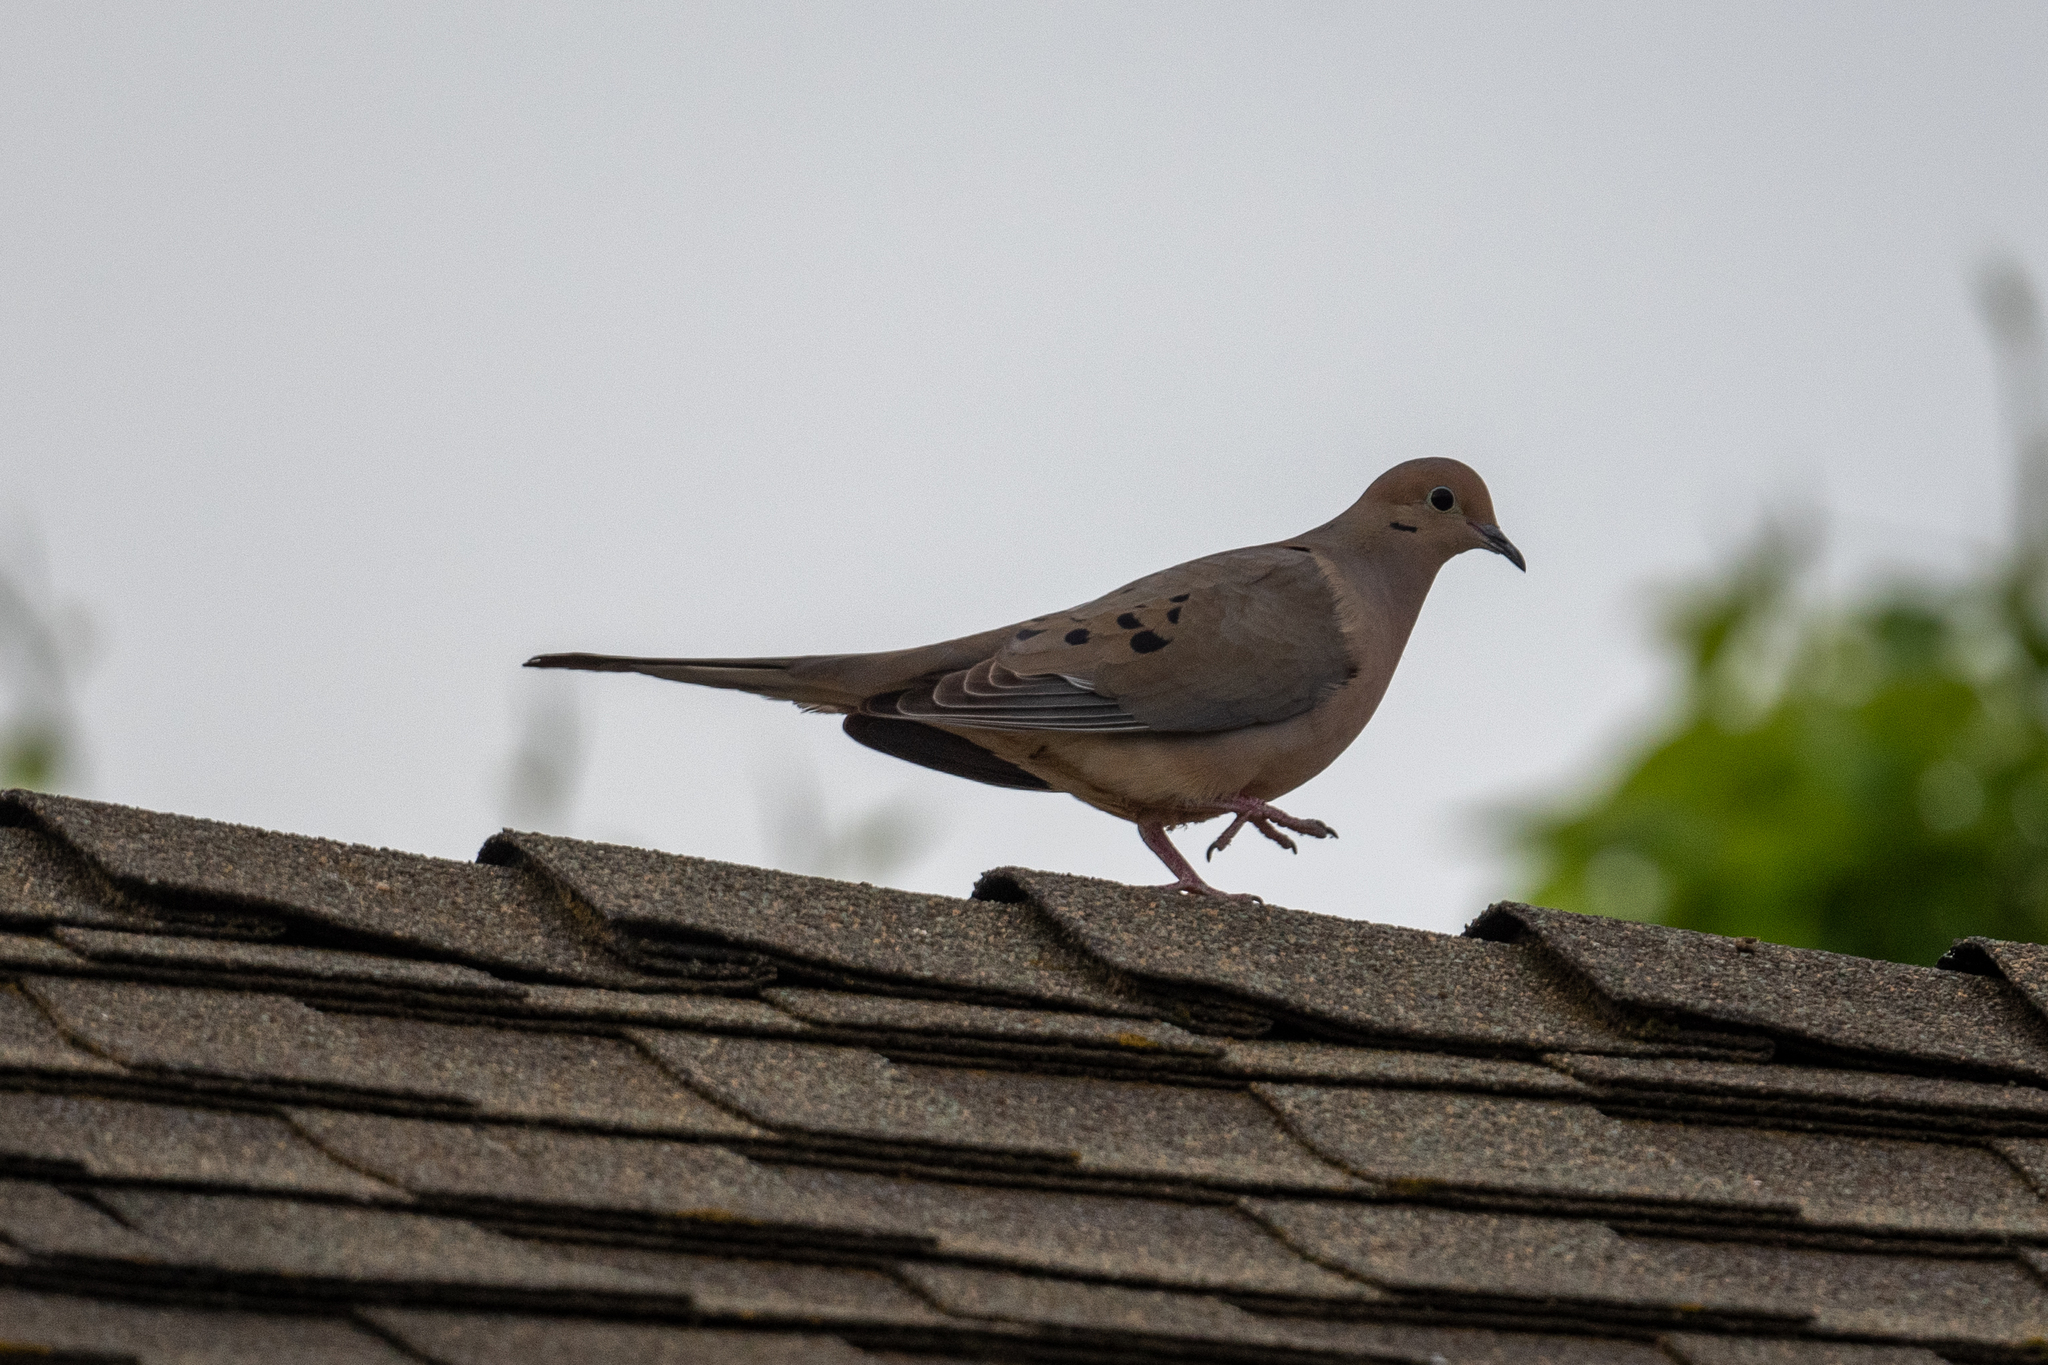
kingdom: Animalia
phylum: Chordata
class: Aves
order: Columbiformes
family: Columbidae
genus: Zenaida
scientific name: Zenaida macroura
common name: Mourning dove
